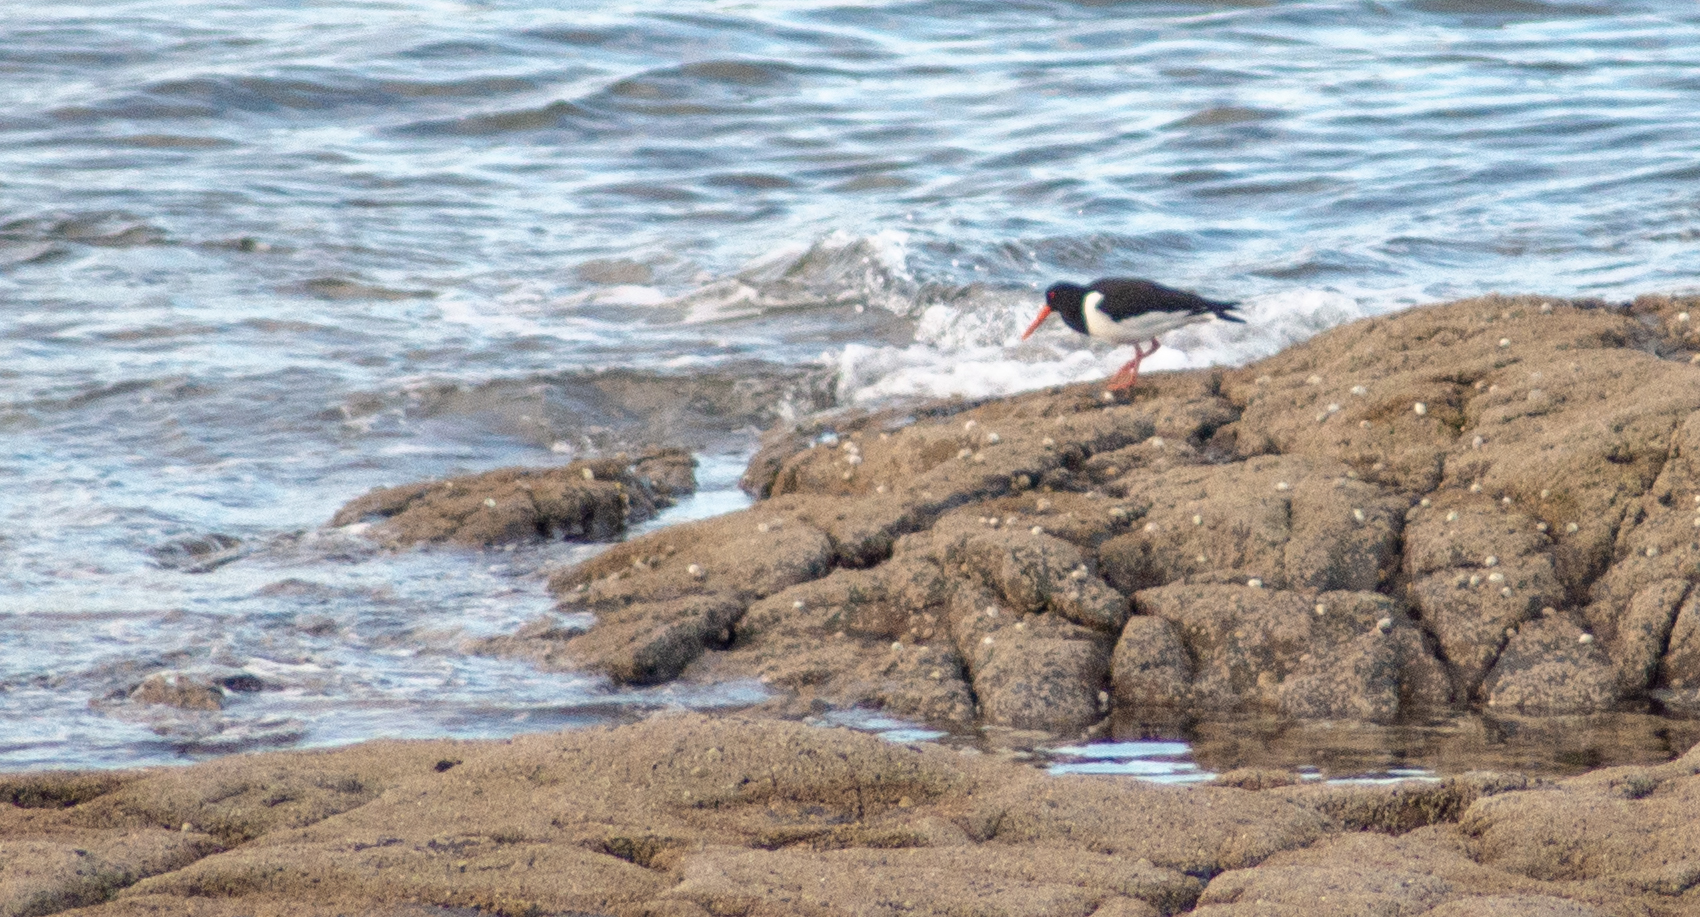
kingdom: Animalia
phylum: Chordata
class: Aves
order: Charadriiformes
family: Haematopodidae
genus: Haematopus
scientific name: Haematopus ostralegus
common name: Eurasian oystercatcher
